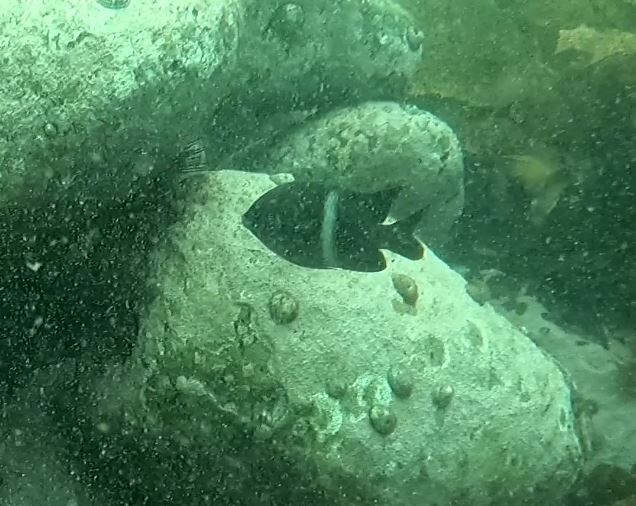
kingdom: Animalia
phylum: Chordata
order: Perciformes
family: Pomacentridae
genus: Parma
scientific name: Parma unifasciata
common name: Girdled parma
